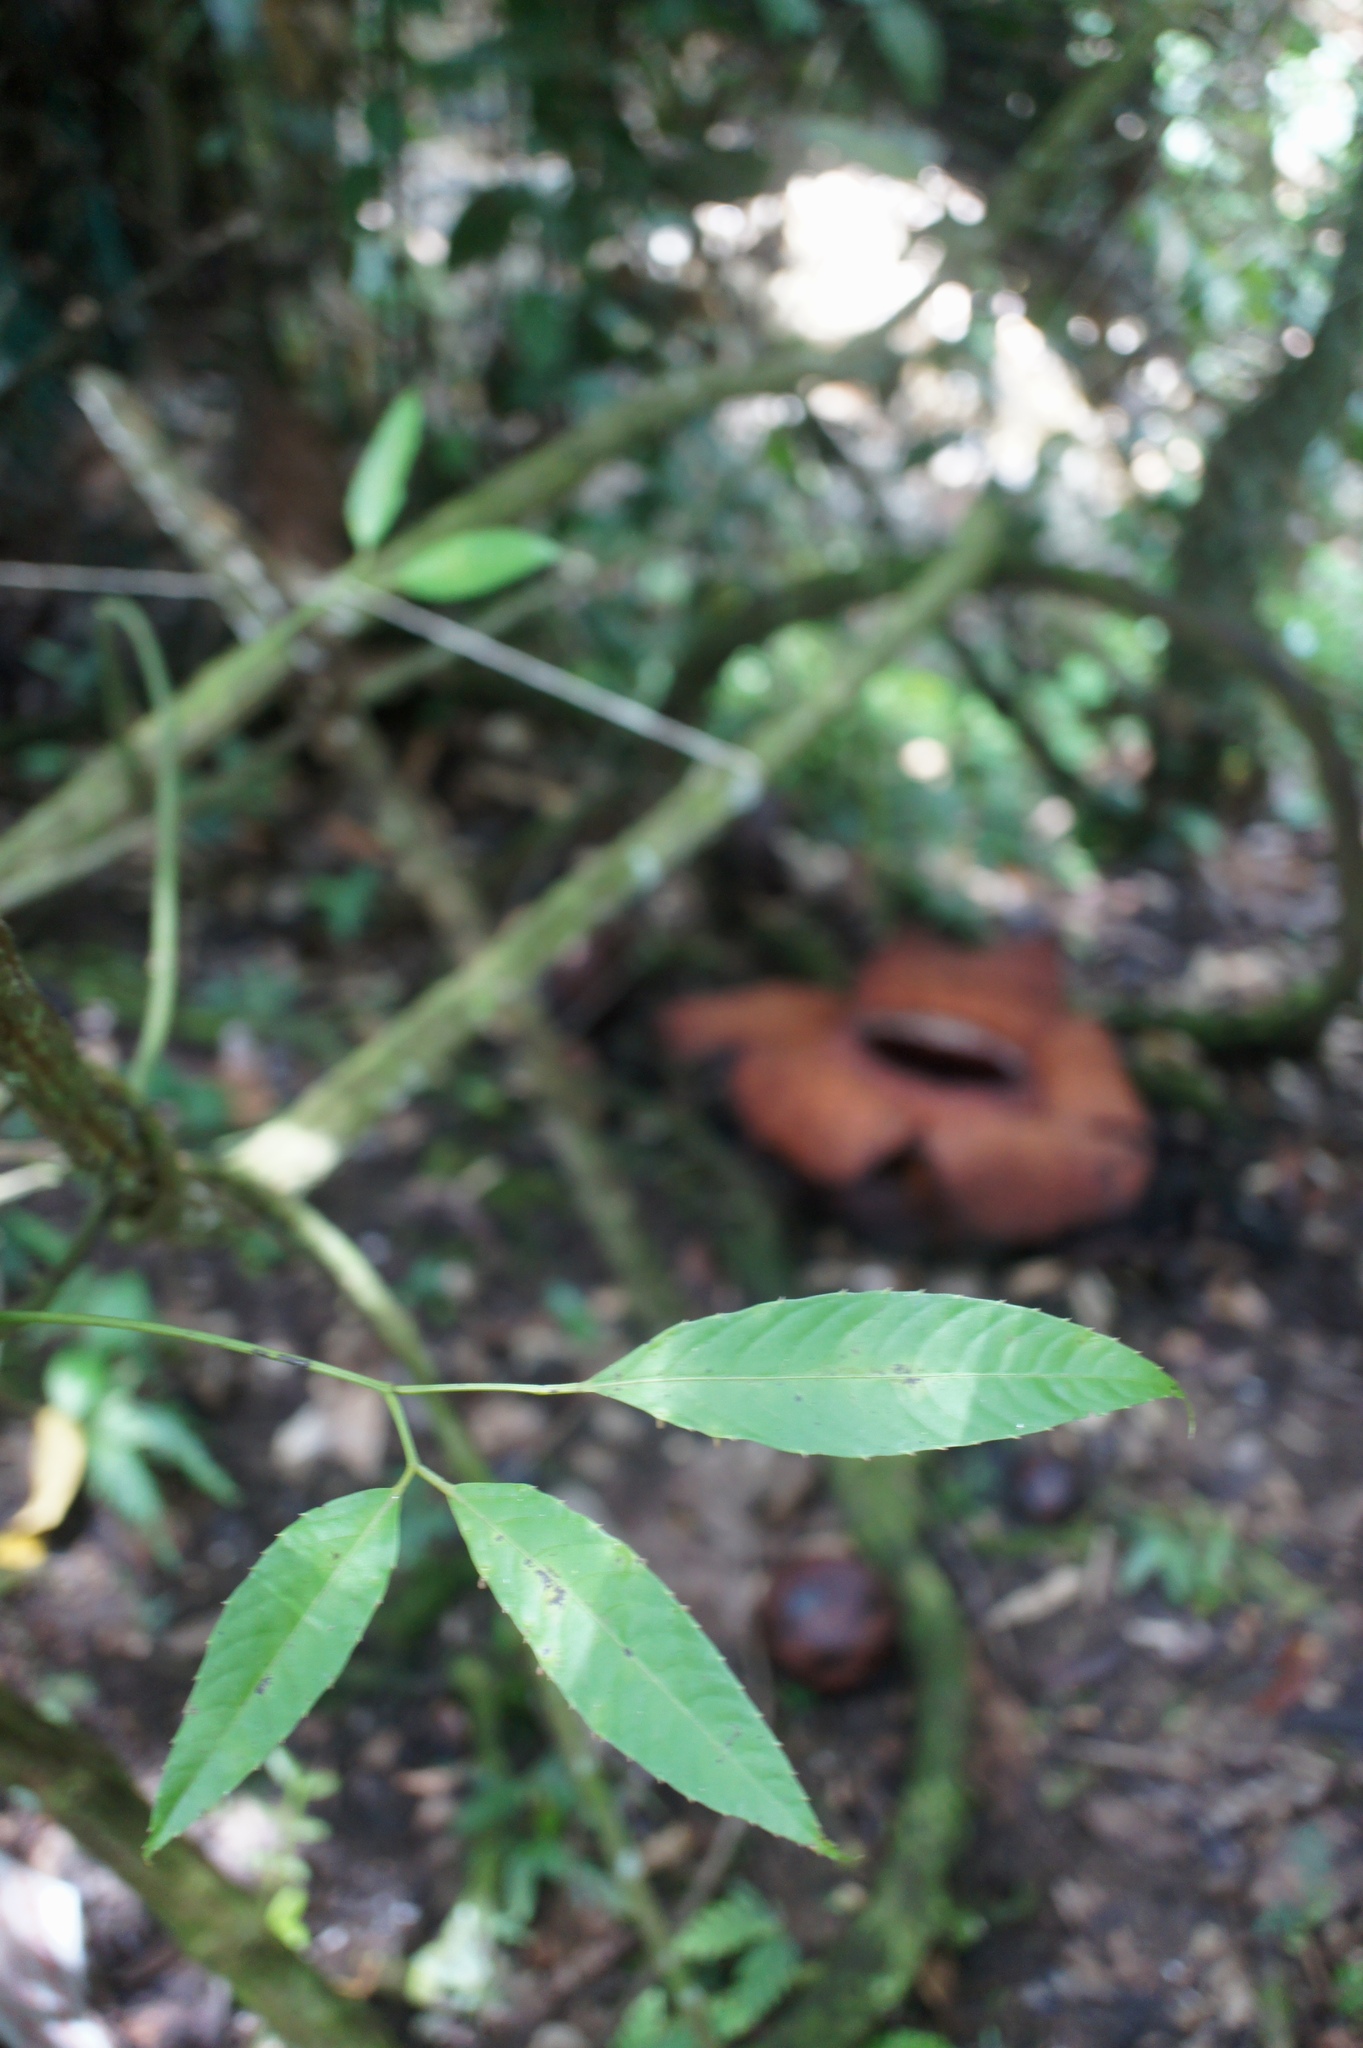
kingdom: Plantae
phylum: Tracheophyta
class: Magnoliopsida
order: Vitales
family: Vitaceae
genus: Tetrastigma
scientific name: Tetrastigma leucostaphylum
